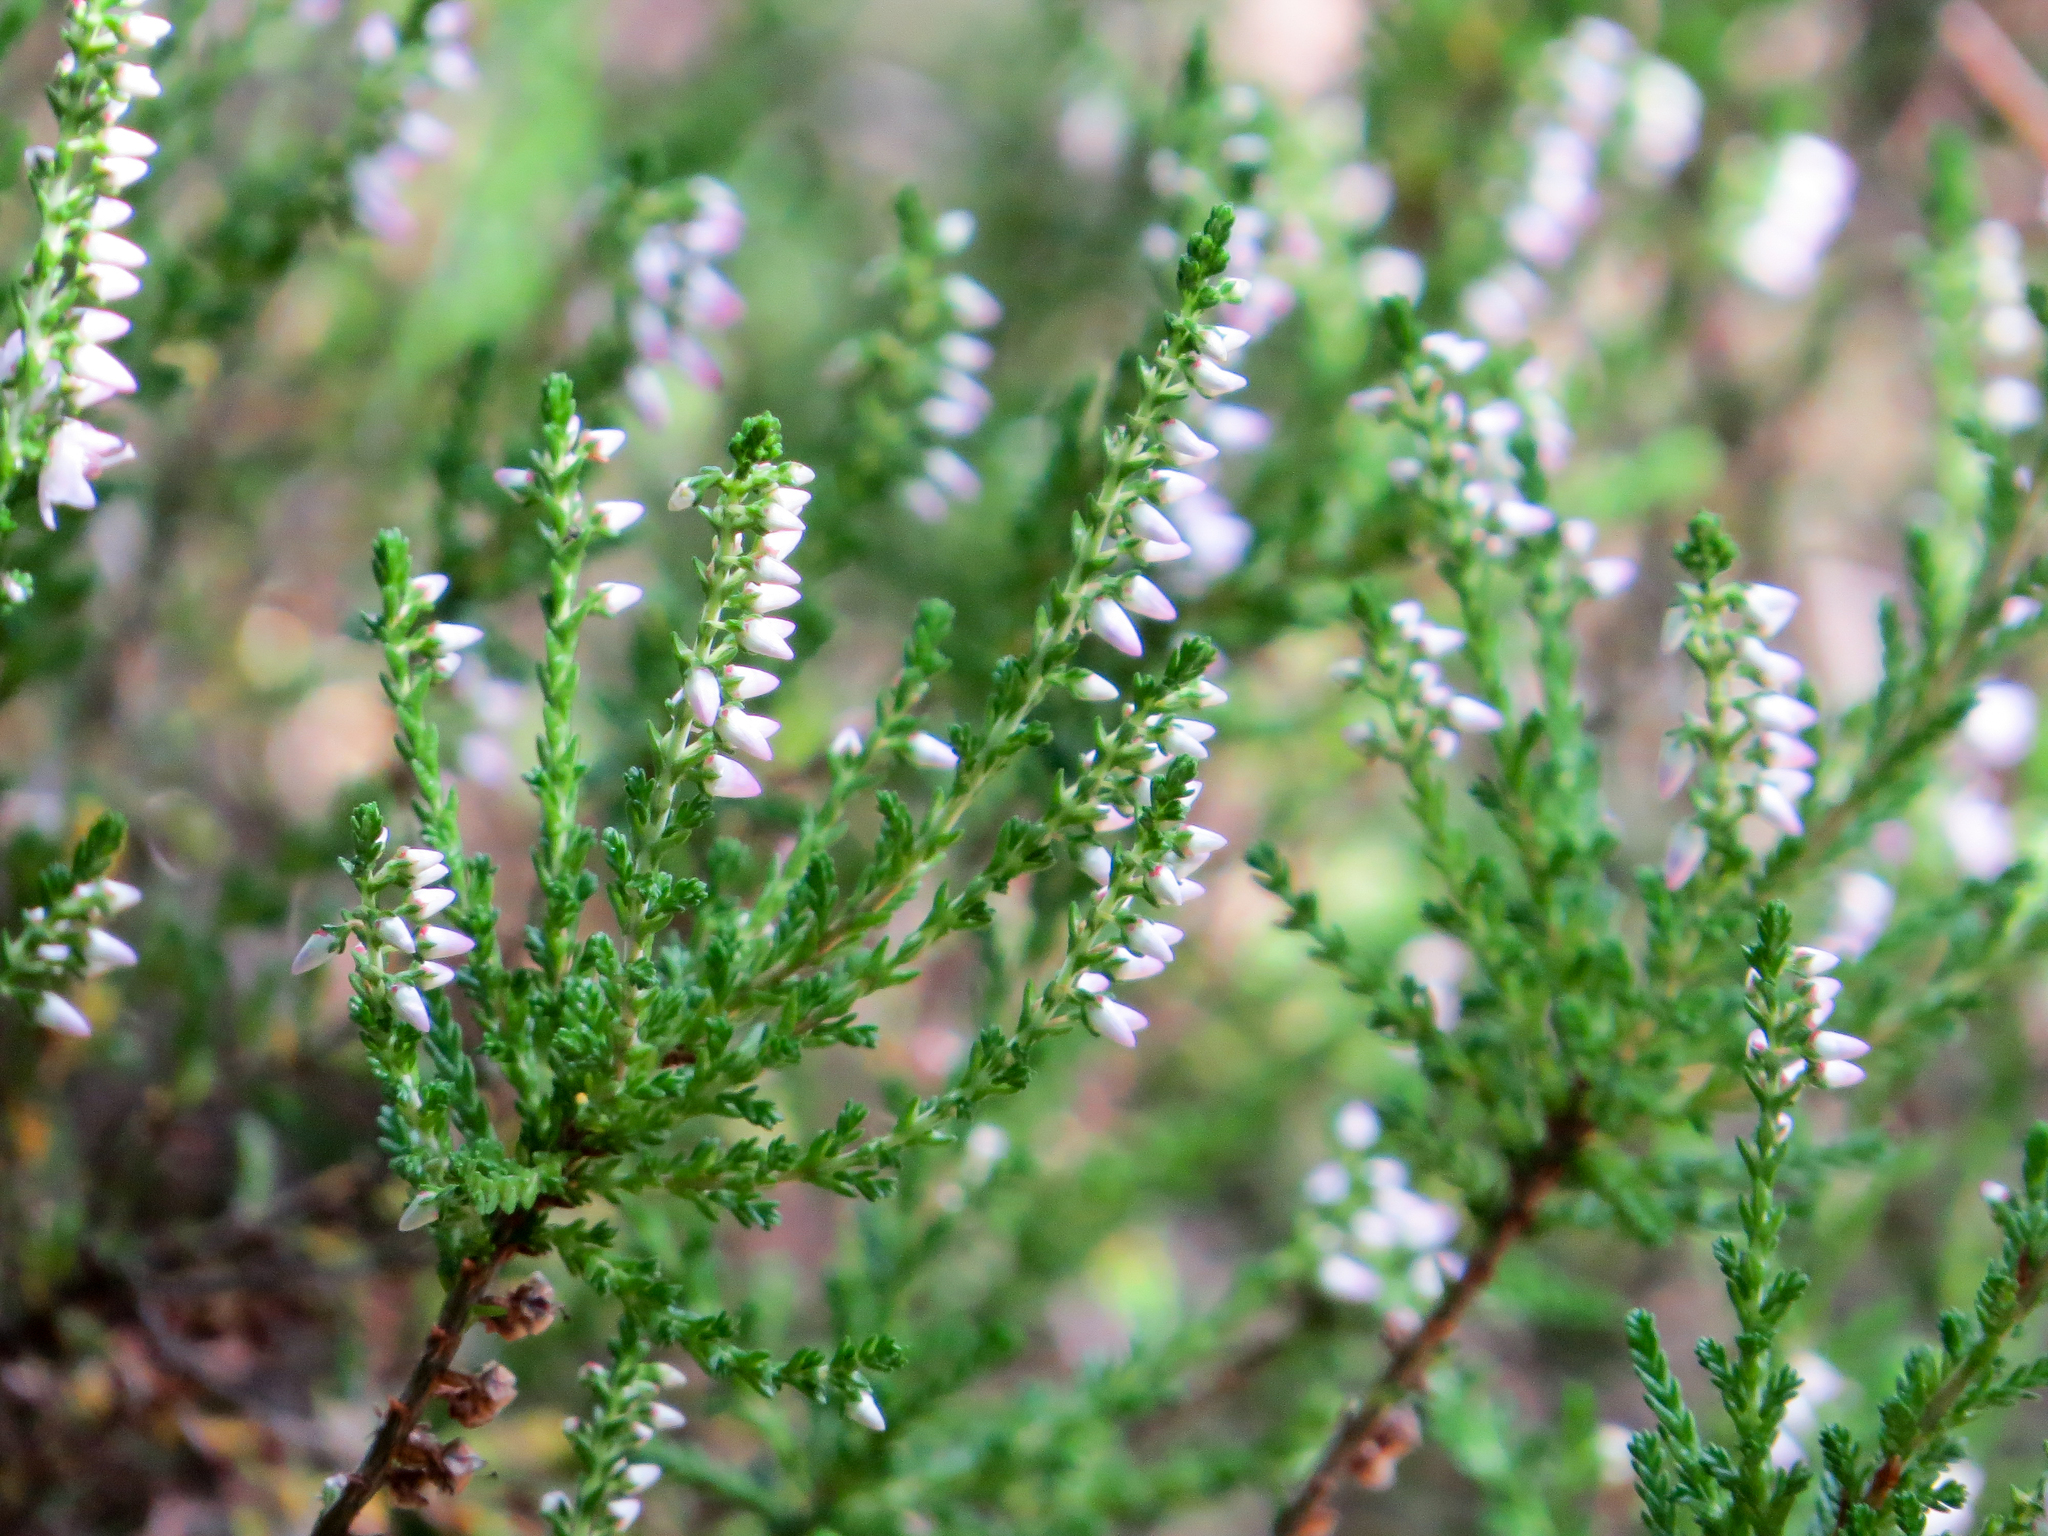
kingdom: Plantae
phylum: Tracheophyta
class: Magnoliopsida
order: Ericales
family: Ericaceae
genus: Calluna
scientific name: Calluna vulgaris
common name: Heather
